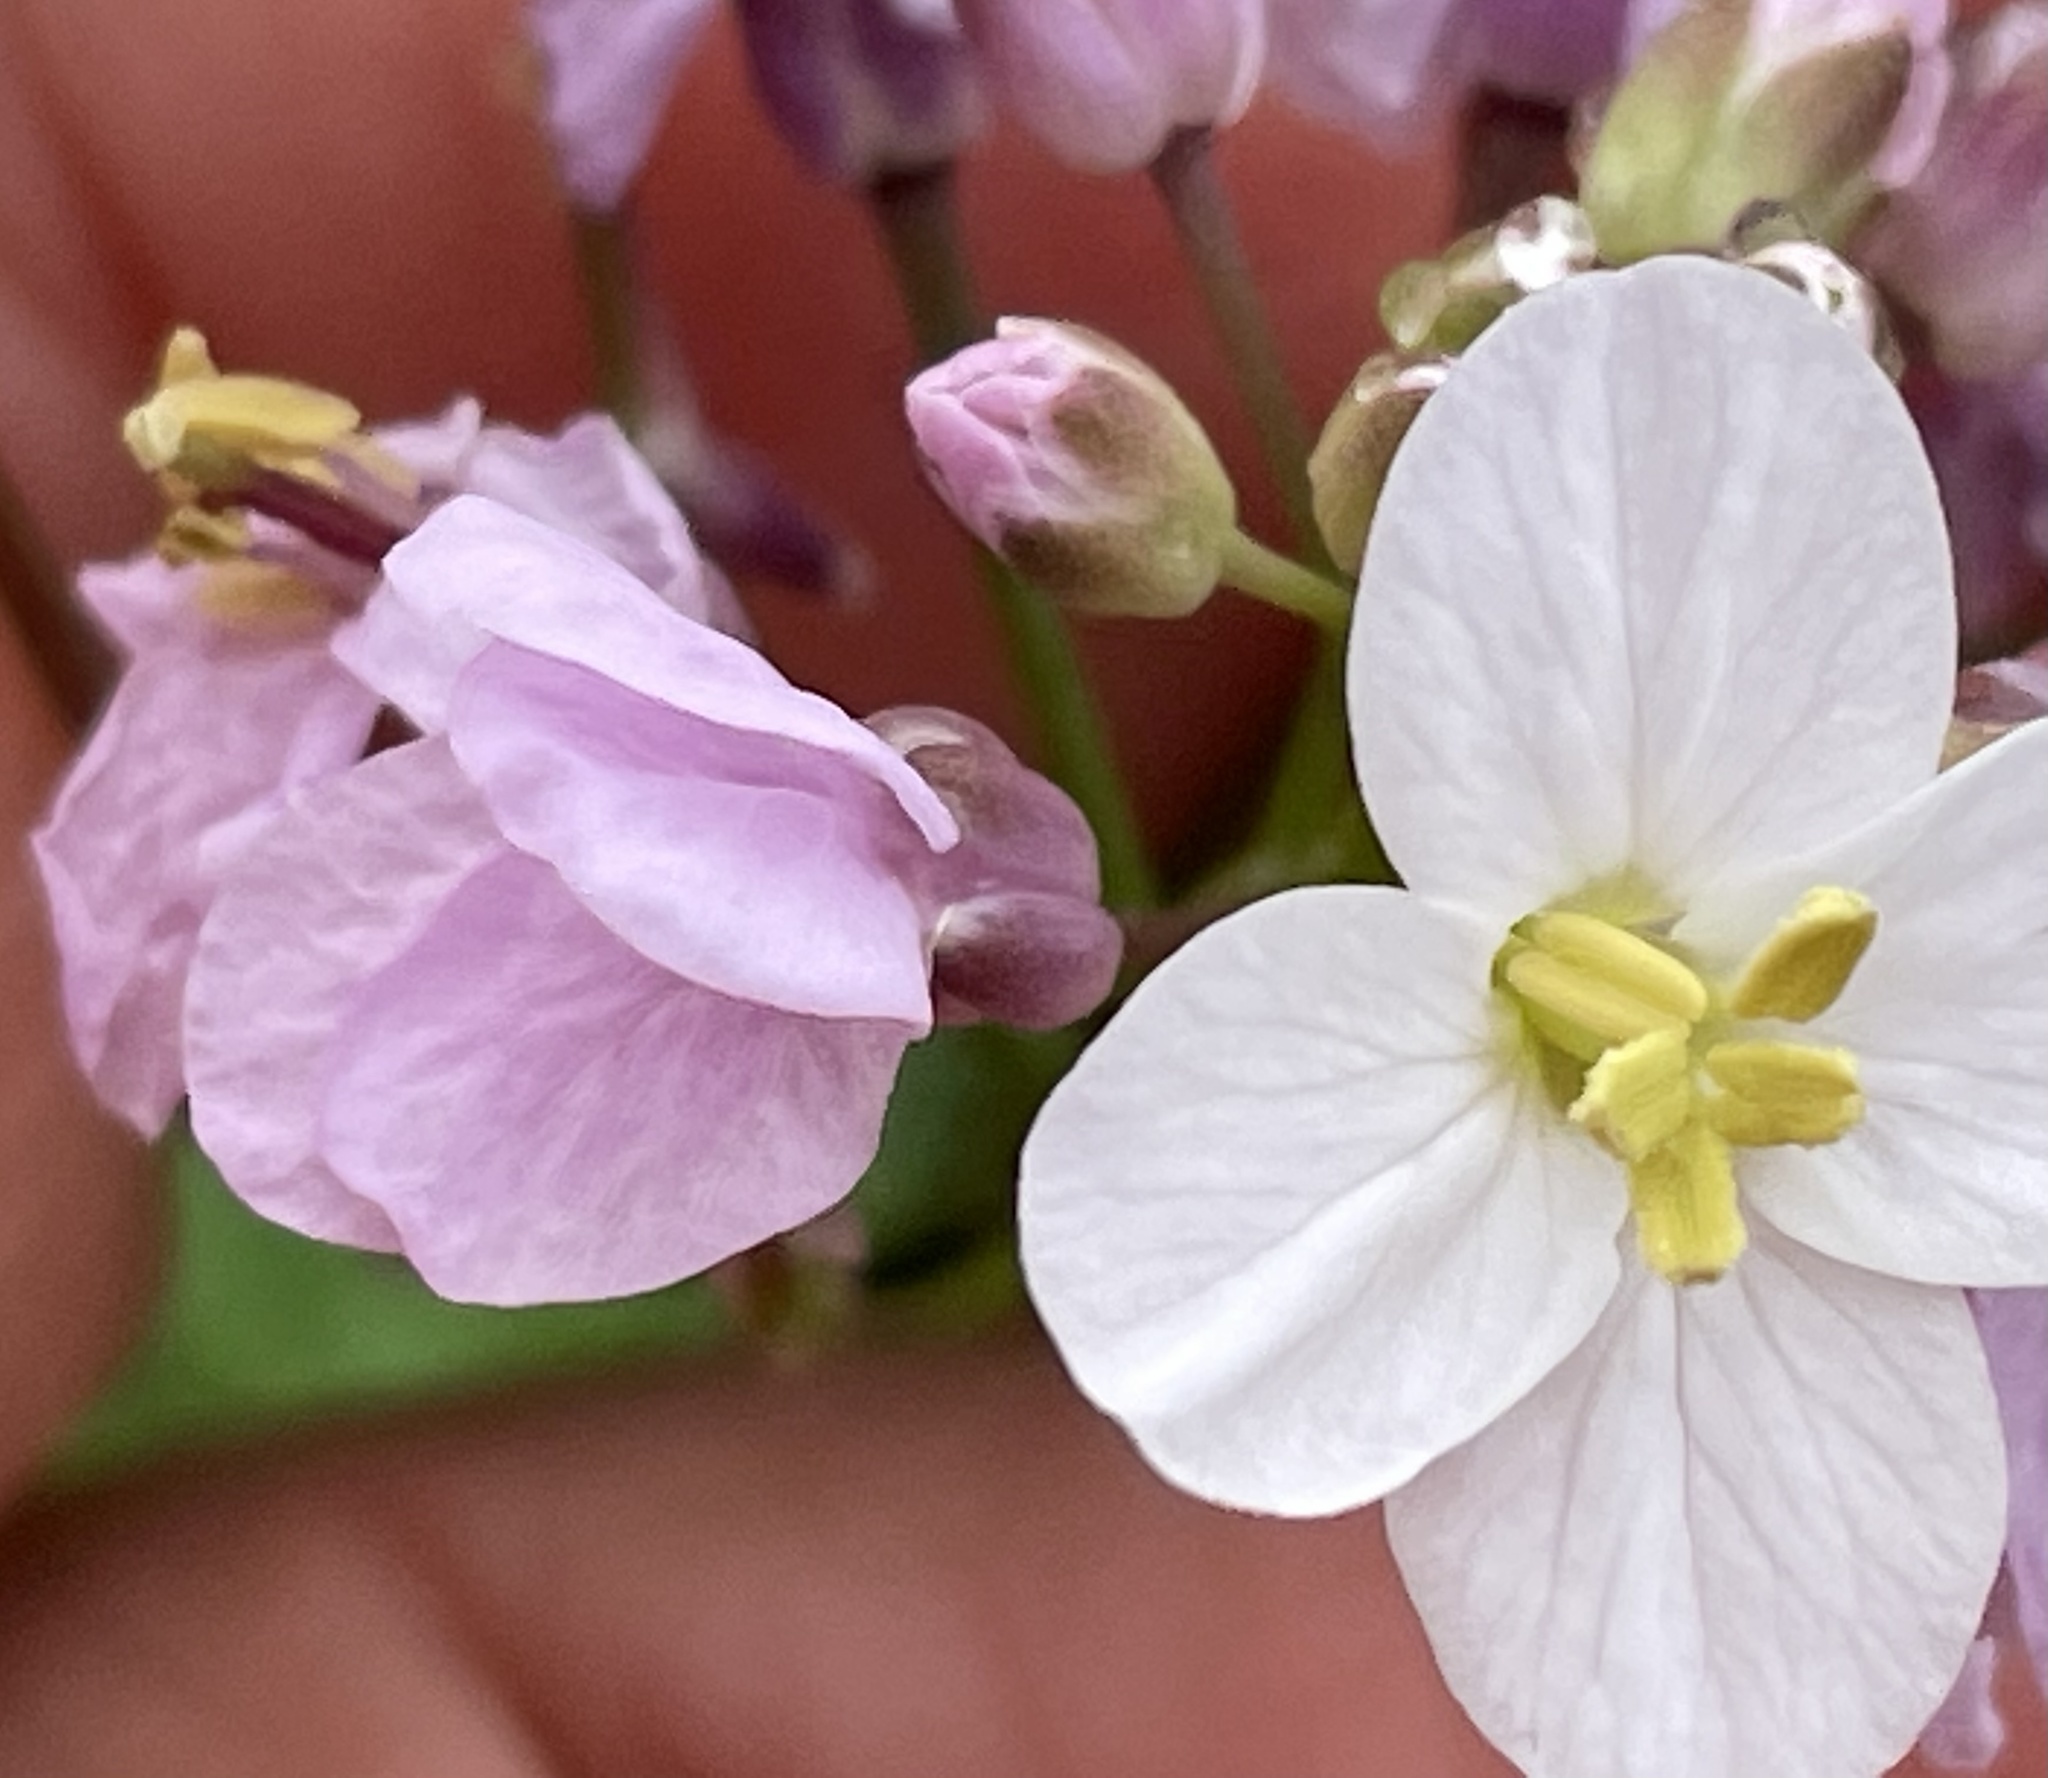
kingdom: Plantae
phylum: Tracheophyta
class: Magnoliopsida
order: Brassicales
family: Brassicaceae
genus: Cardamine
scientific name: Cardamine californica
